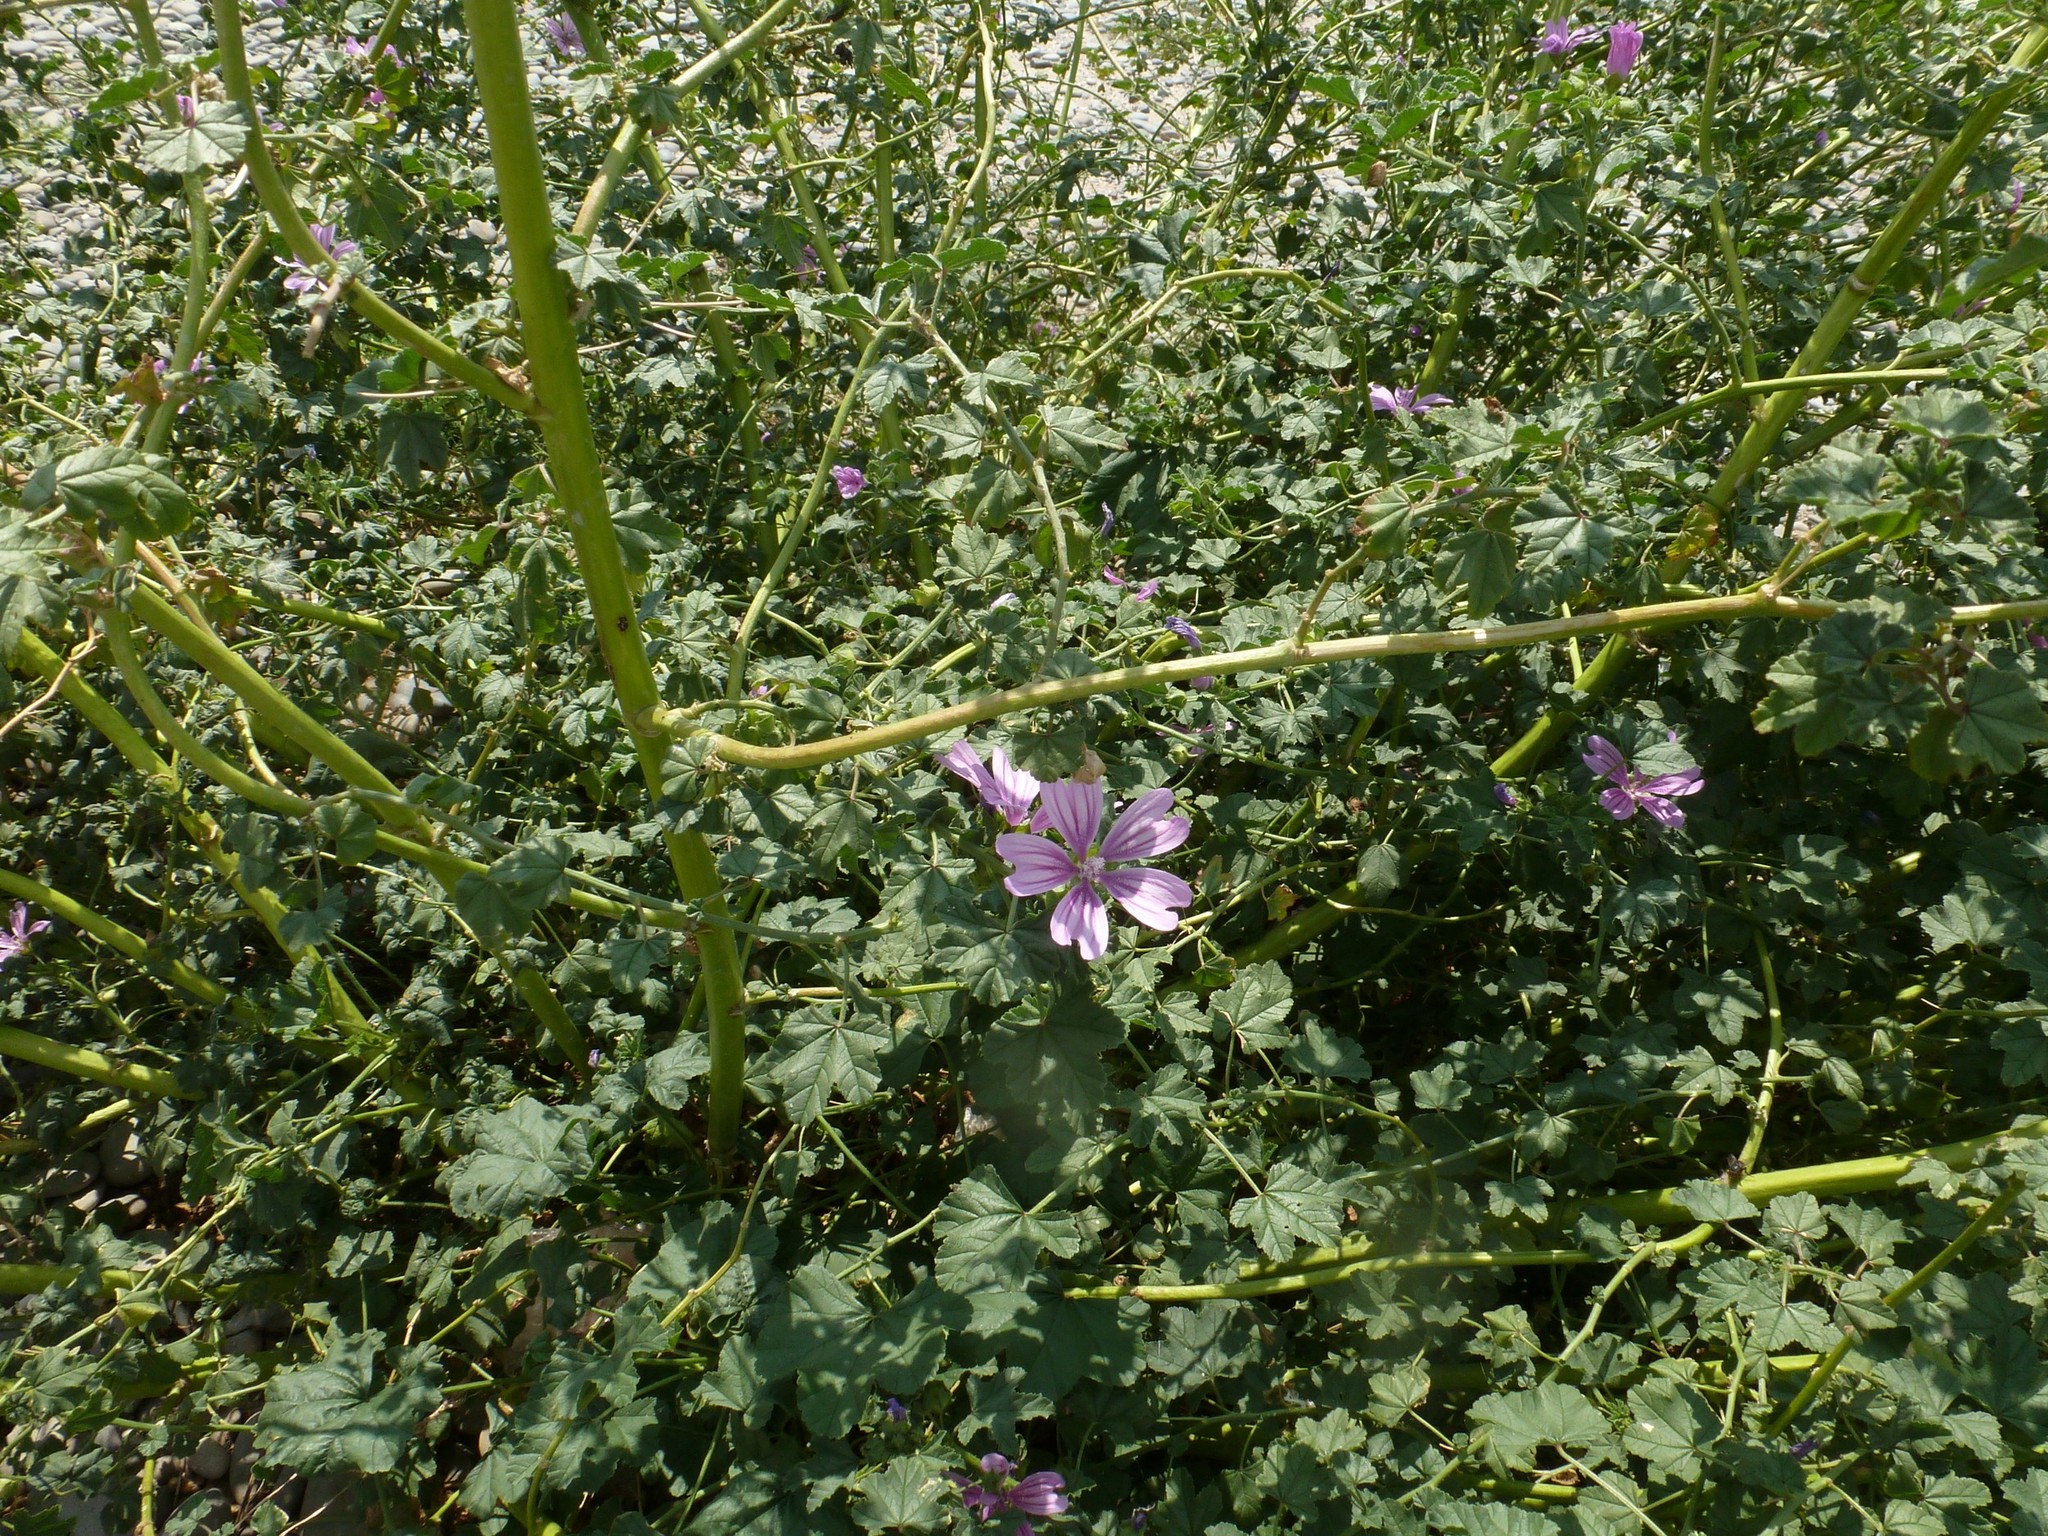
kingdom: Plantae
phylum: Tracheophyta
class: Magnoliopsida
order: Malvales
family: Malvaceae
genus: Malva
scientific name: Malva sylvestris
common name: Common mallow
